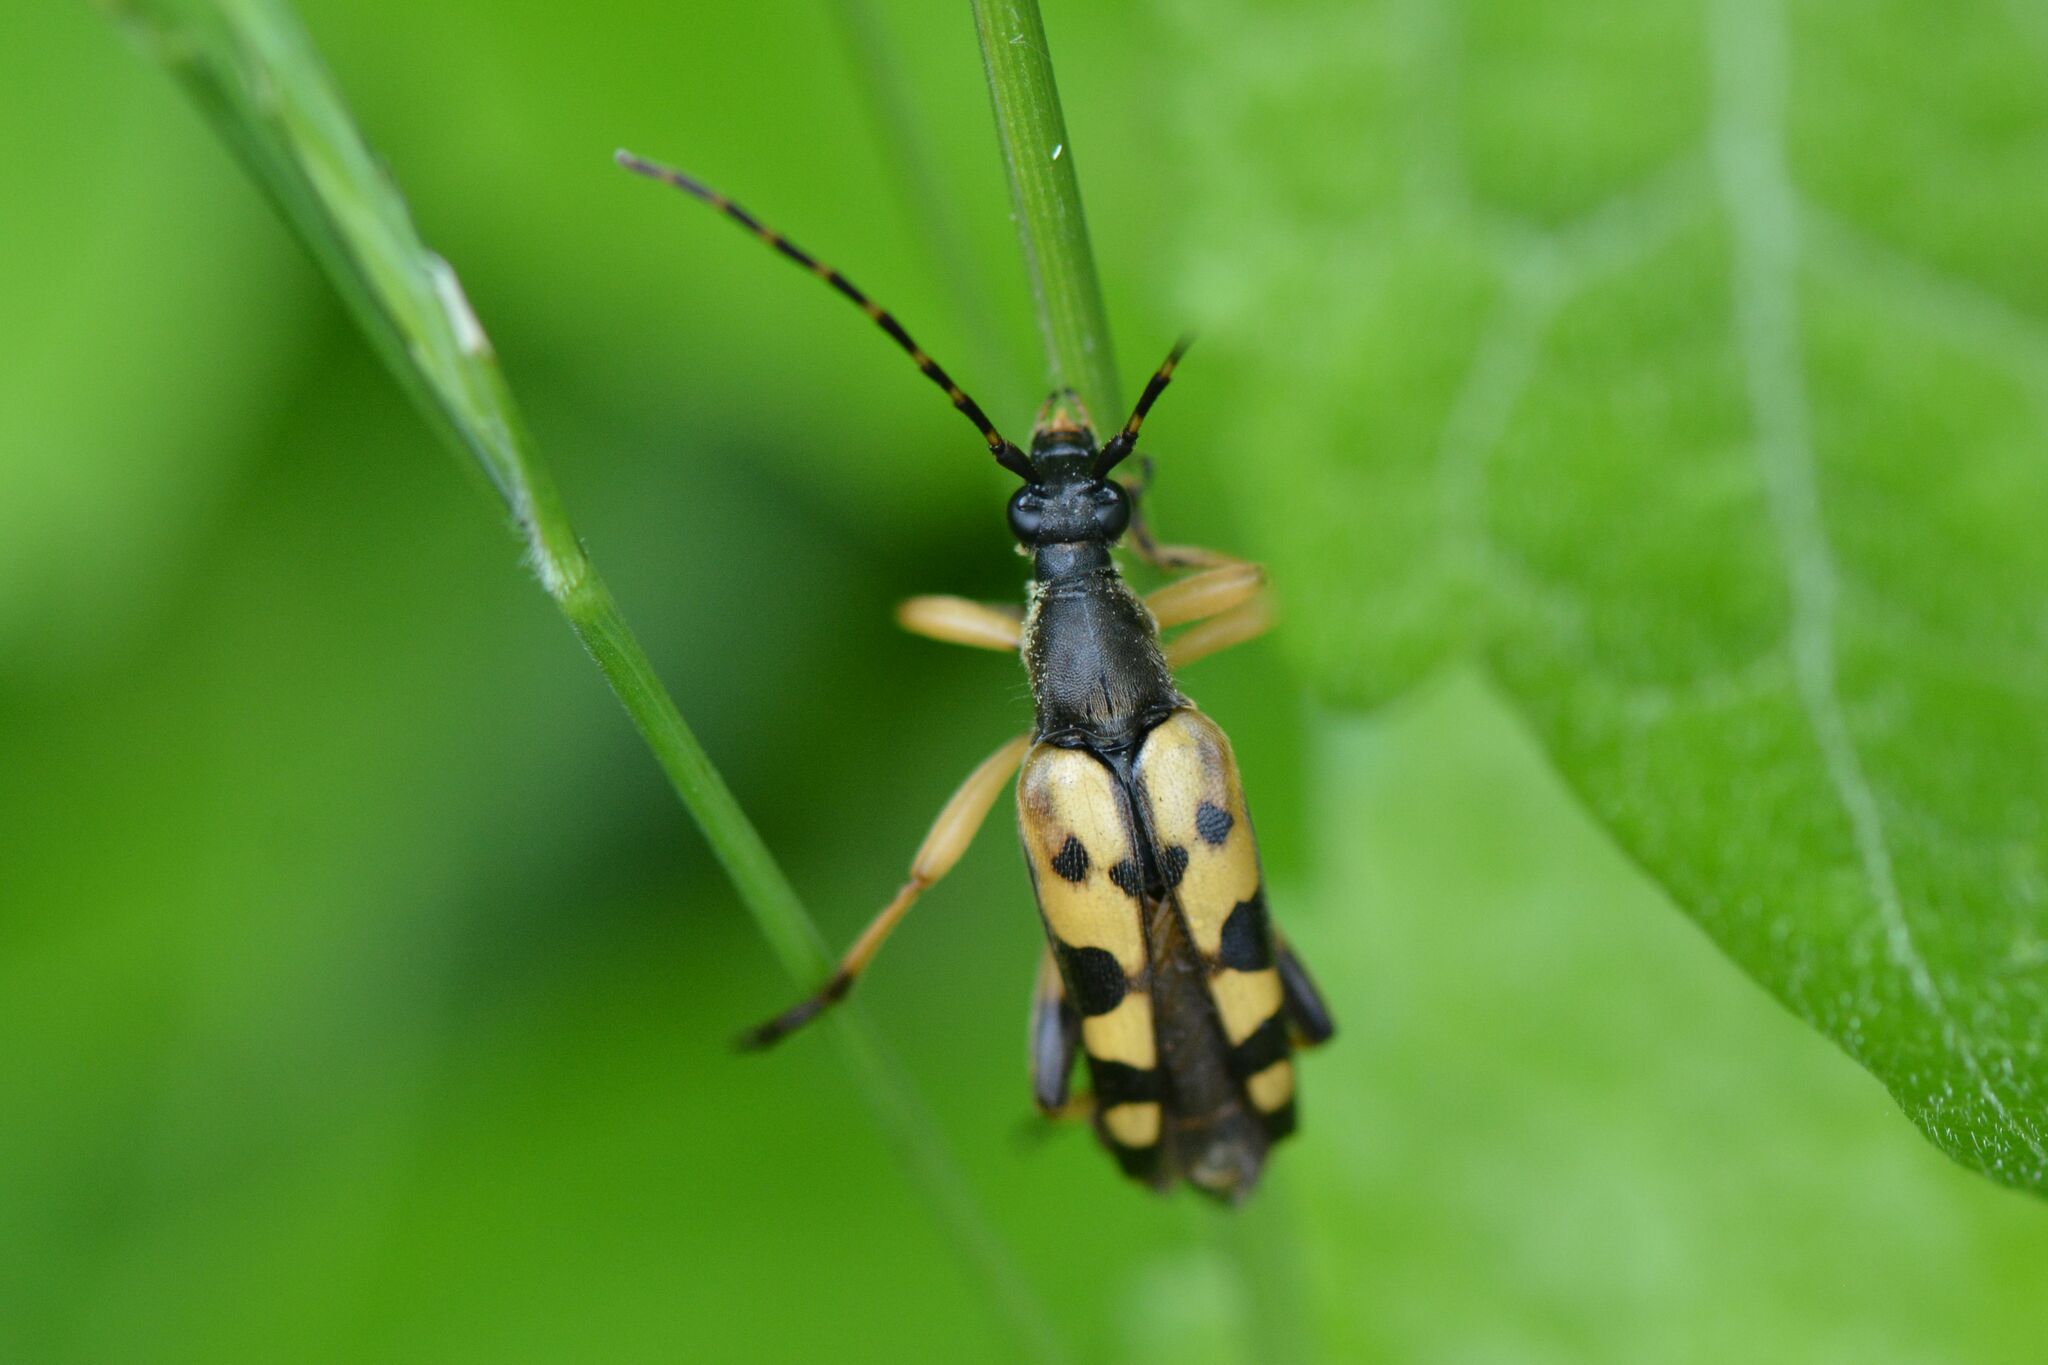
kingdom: Animalia
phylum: Arthropoda
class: Insecta
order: Coleoptera
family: Cerambycidae
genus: Rutpela
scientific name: Rutpela maculata
